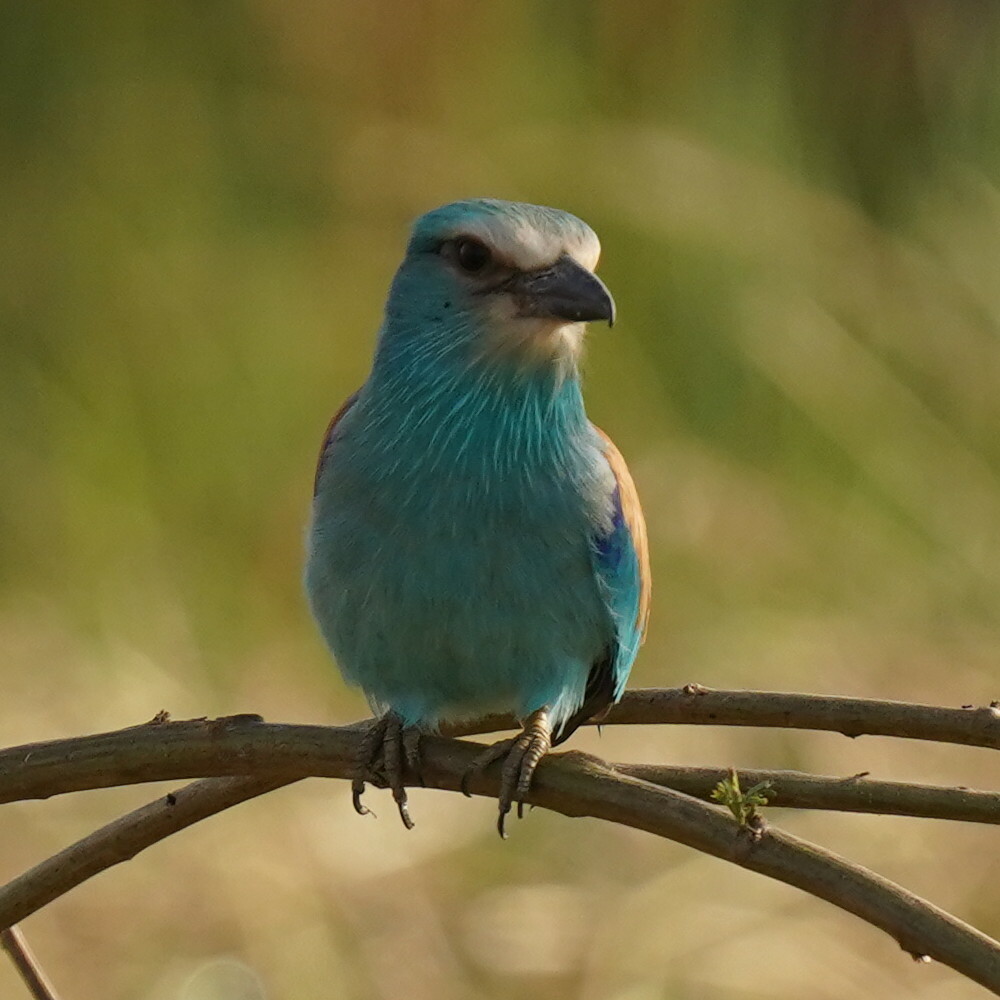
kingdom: Animalia
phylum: Chordata
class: Aves
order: Coraciiformes
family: Coraciidae
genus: Coracias
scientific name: Coracias abyssinicus
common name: Abyssinian roller
